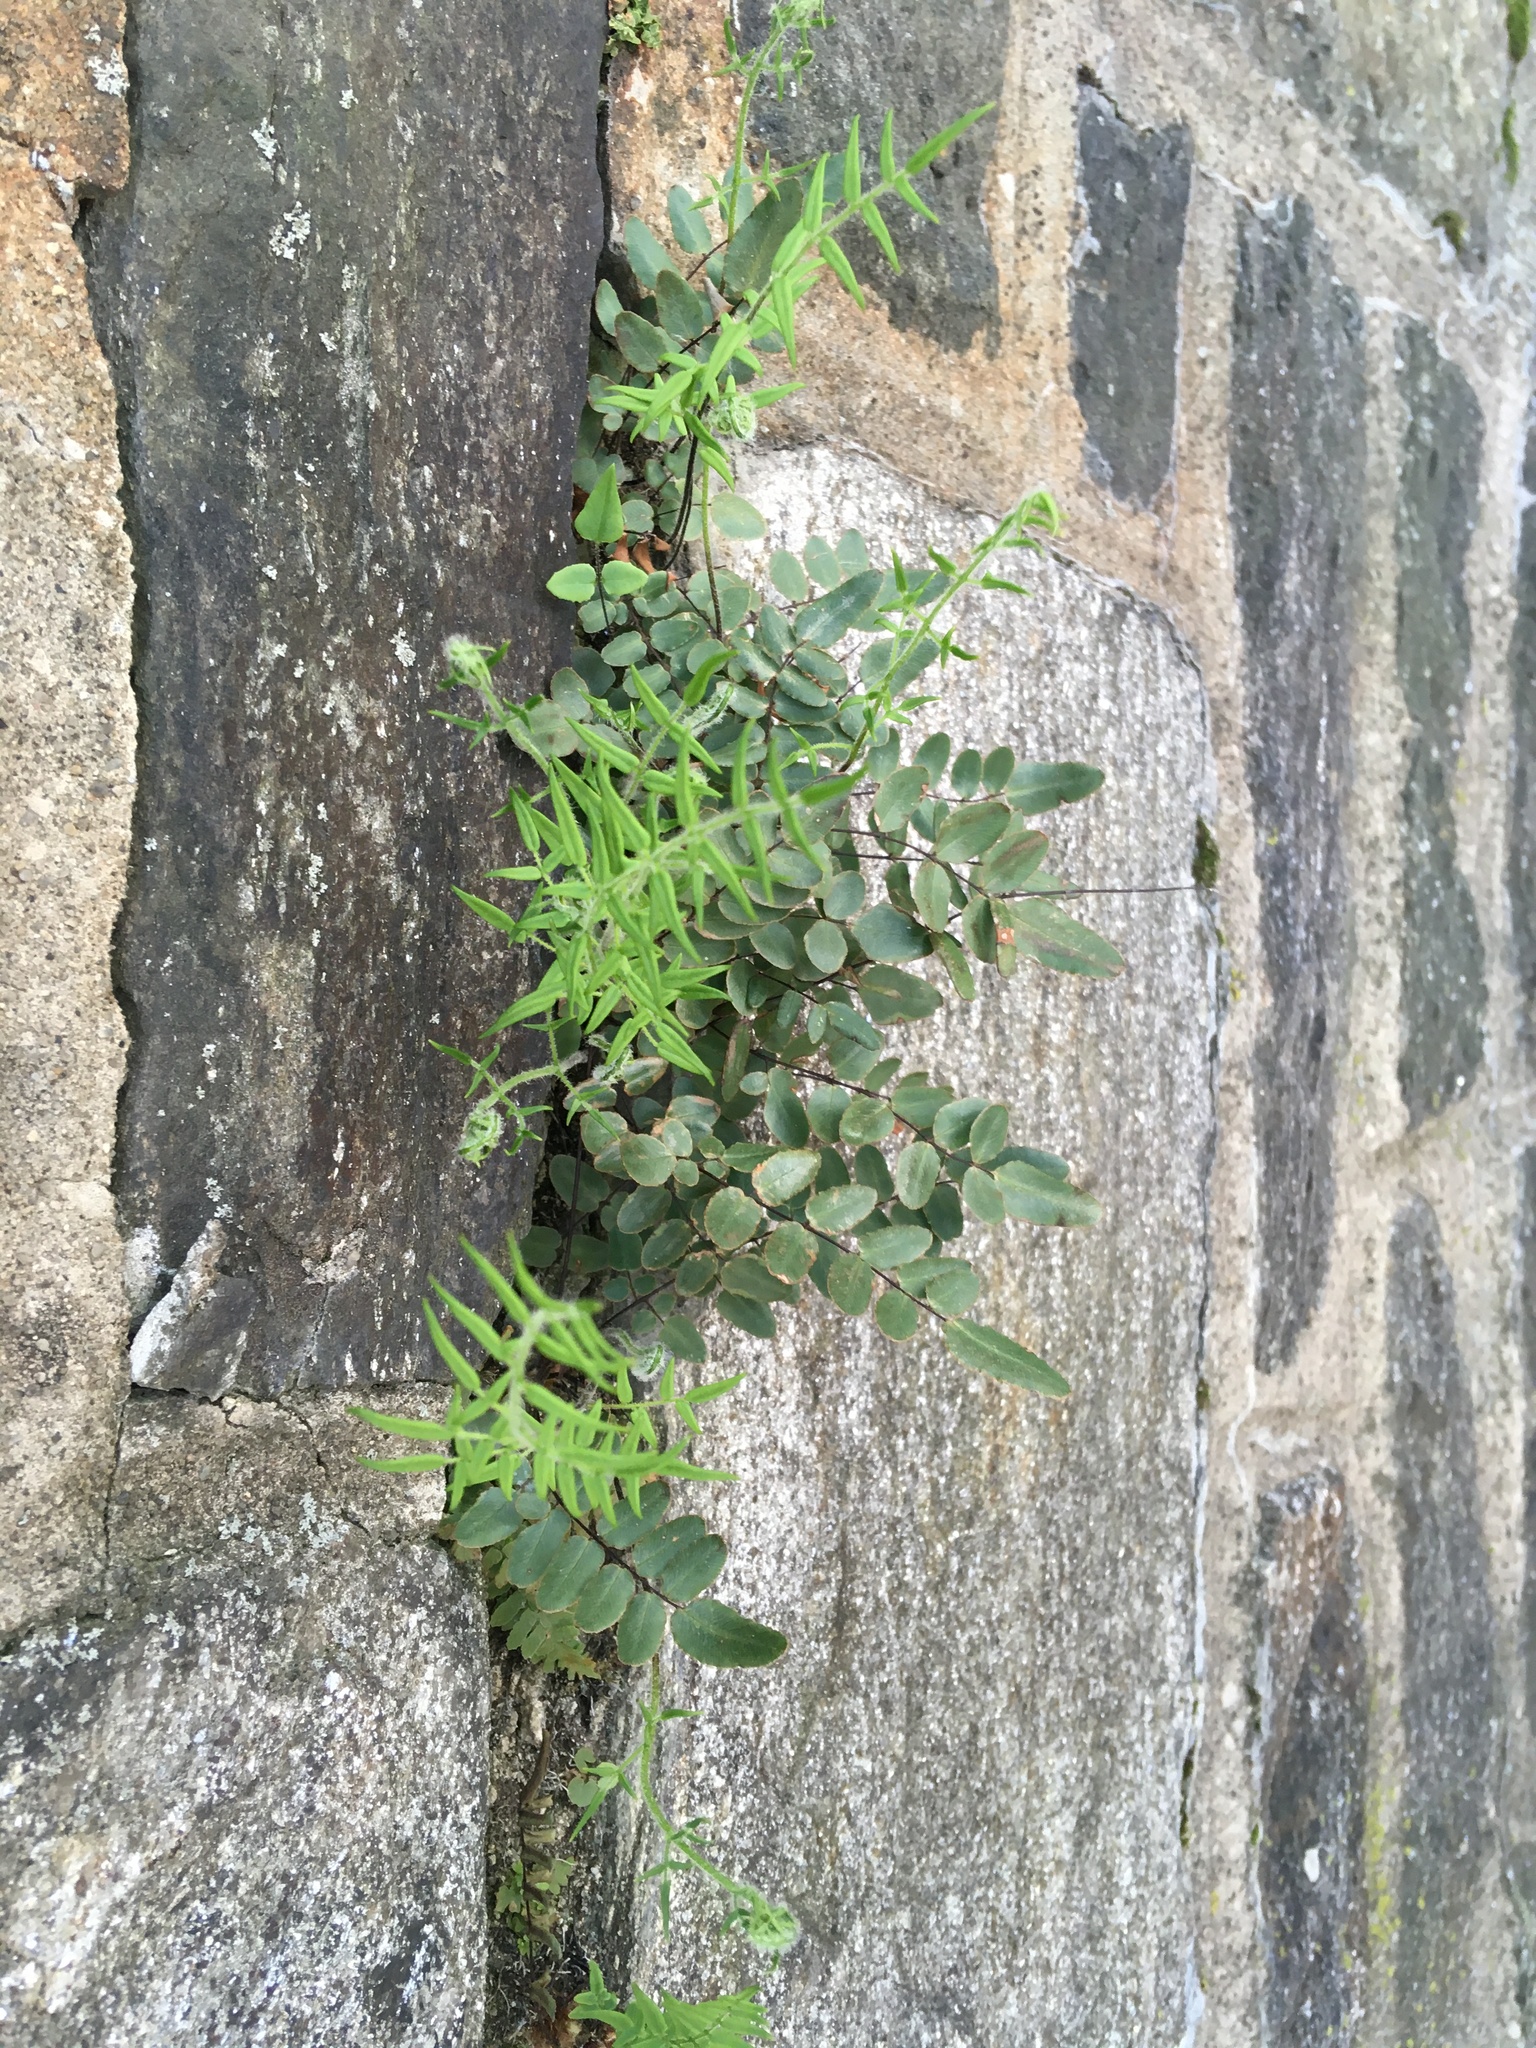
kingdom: Plantae
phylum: Tracheophyta
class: Polypodiopsida
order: Polypodiales
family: Pteridaceae
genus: Pellaea
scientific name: Pellaea atropurpurea
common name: Hairy cliffbrake
